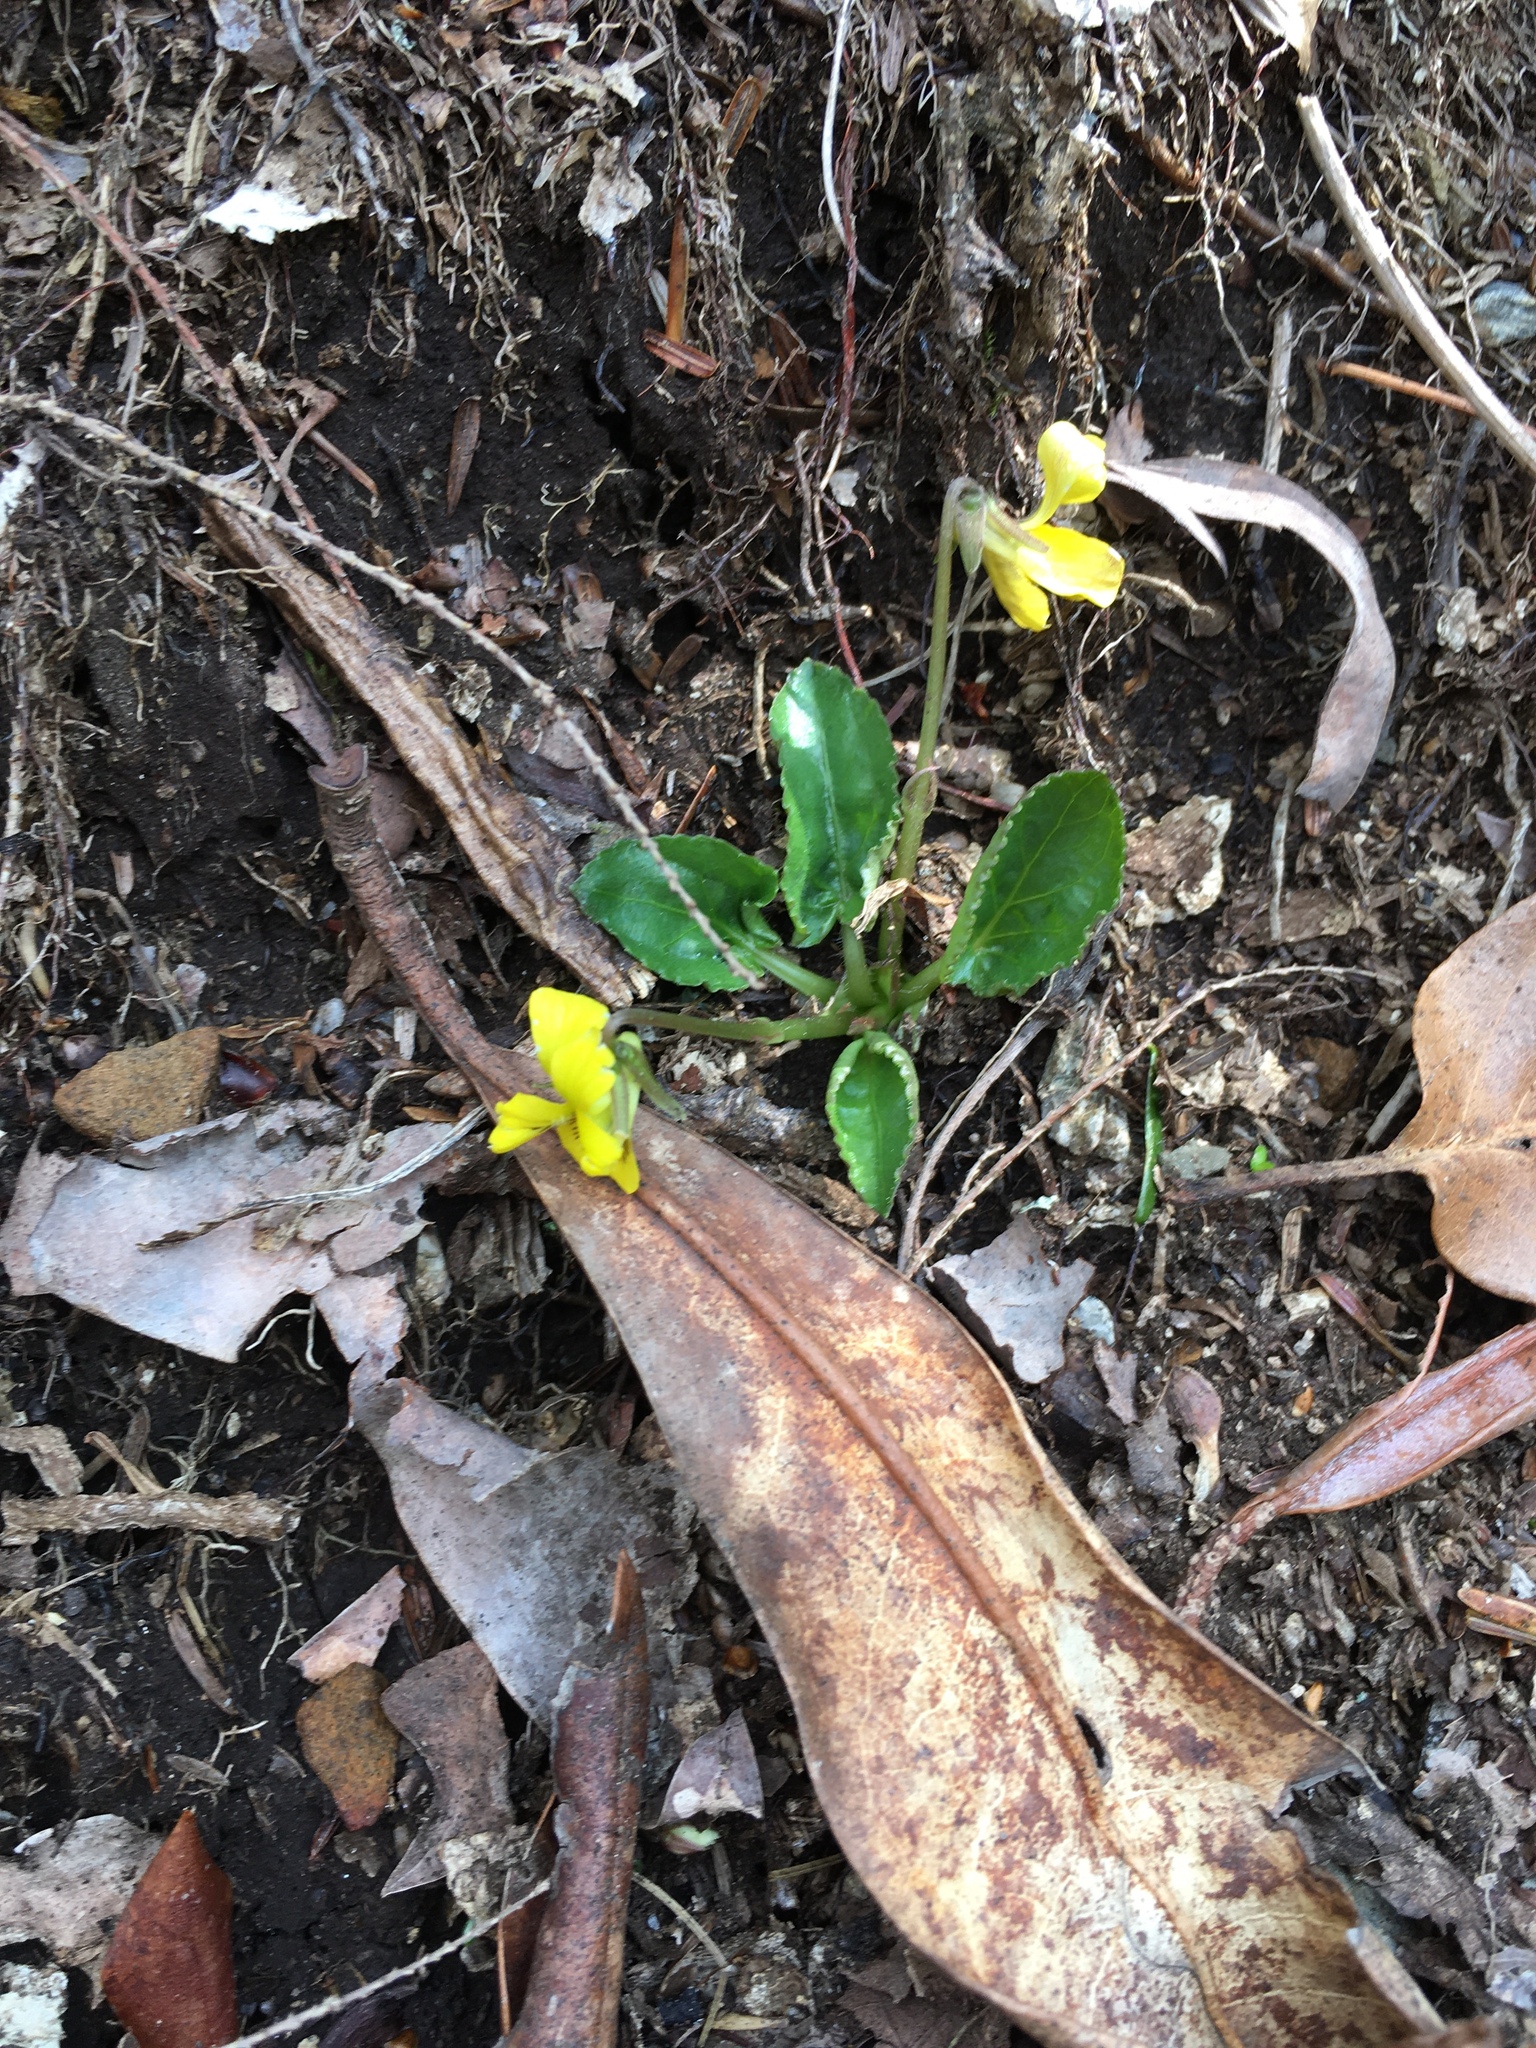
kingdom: Plantae
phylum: Tracheophyta
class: Magnoliopsida
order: Malpighiales
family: Violaceae
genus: Viola
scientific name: Viola rotundifolia
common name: Early yellow violet
